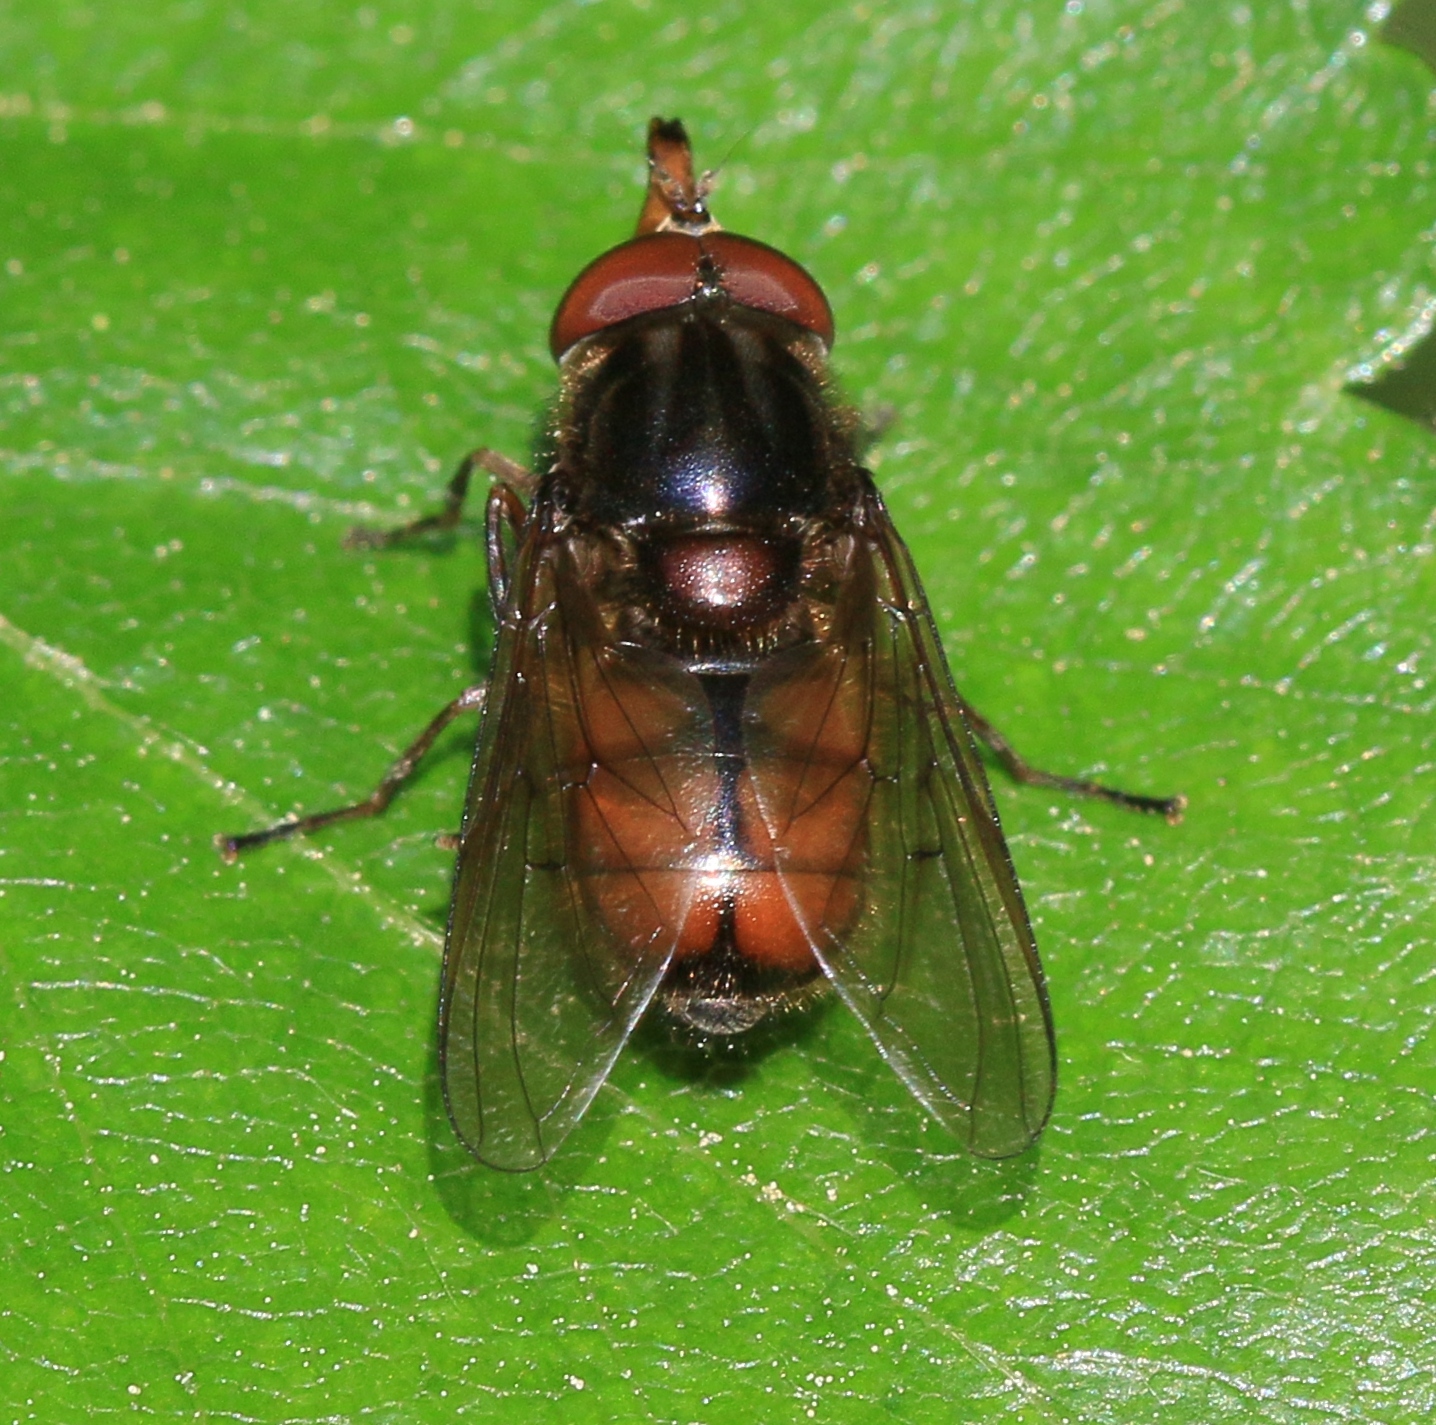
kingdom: Animalia
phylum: Arthropoda
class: Insecta
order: Diptera
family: Syrphidae
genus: Rhingia
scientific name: Rhingia campestris
